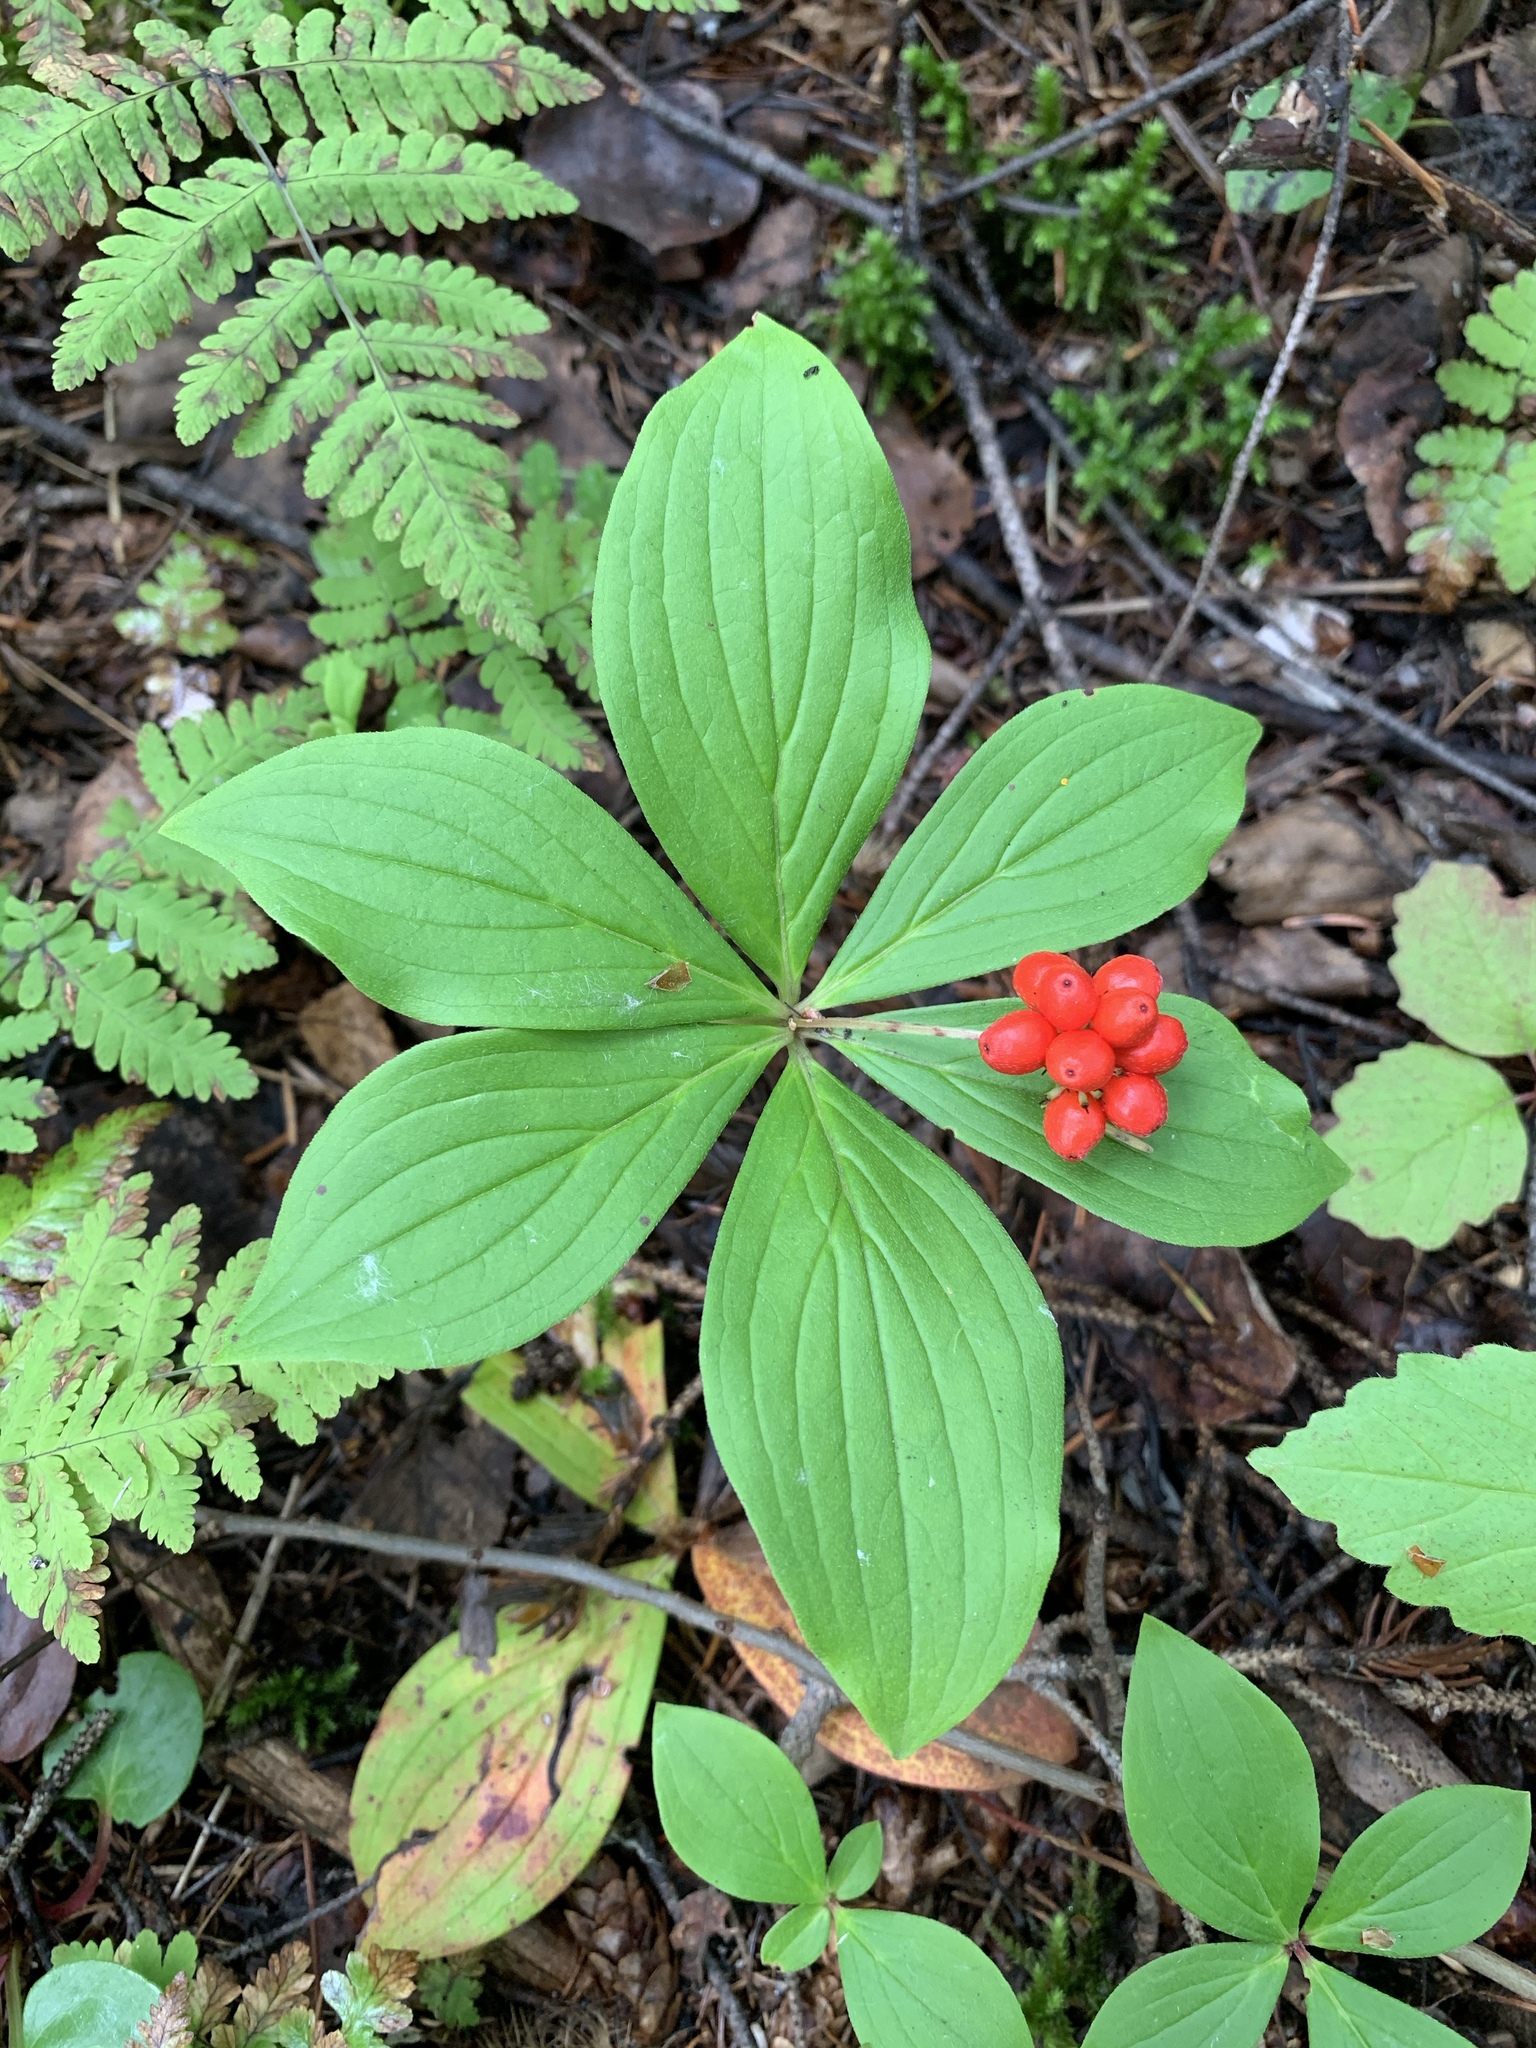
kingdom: Plantae
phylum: Tracheophyta
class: Magnoliopsida
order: Cornales
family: Cornaceae
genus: Cornus
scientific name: Cornus canadensis
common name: Creeping dogwood
